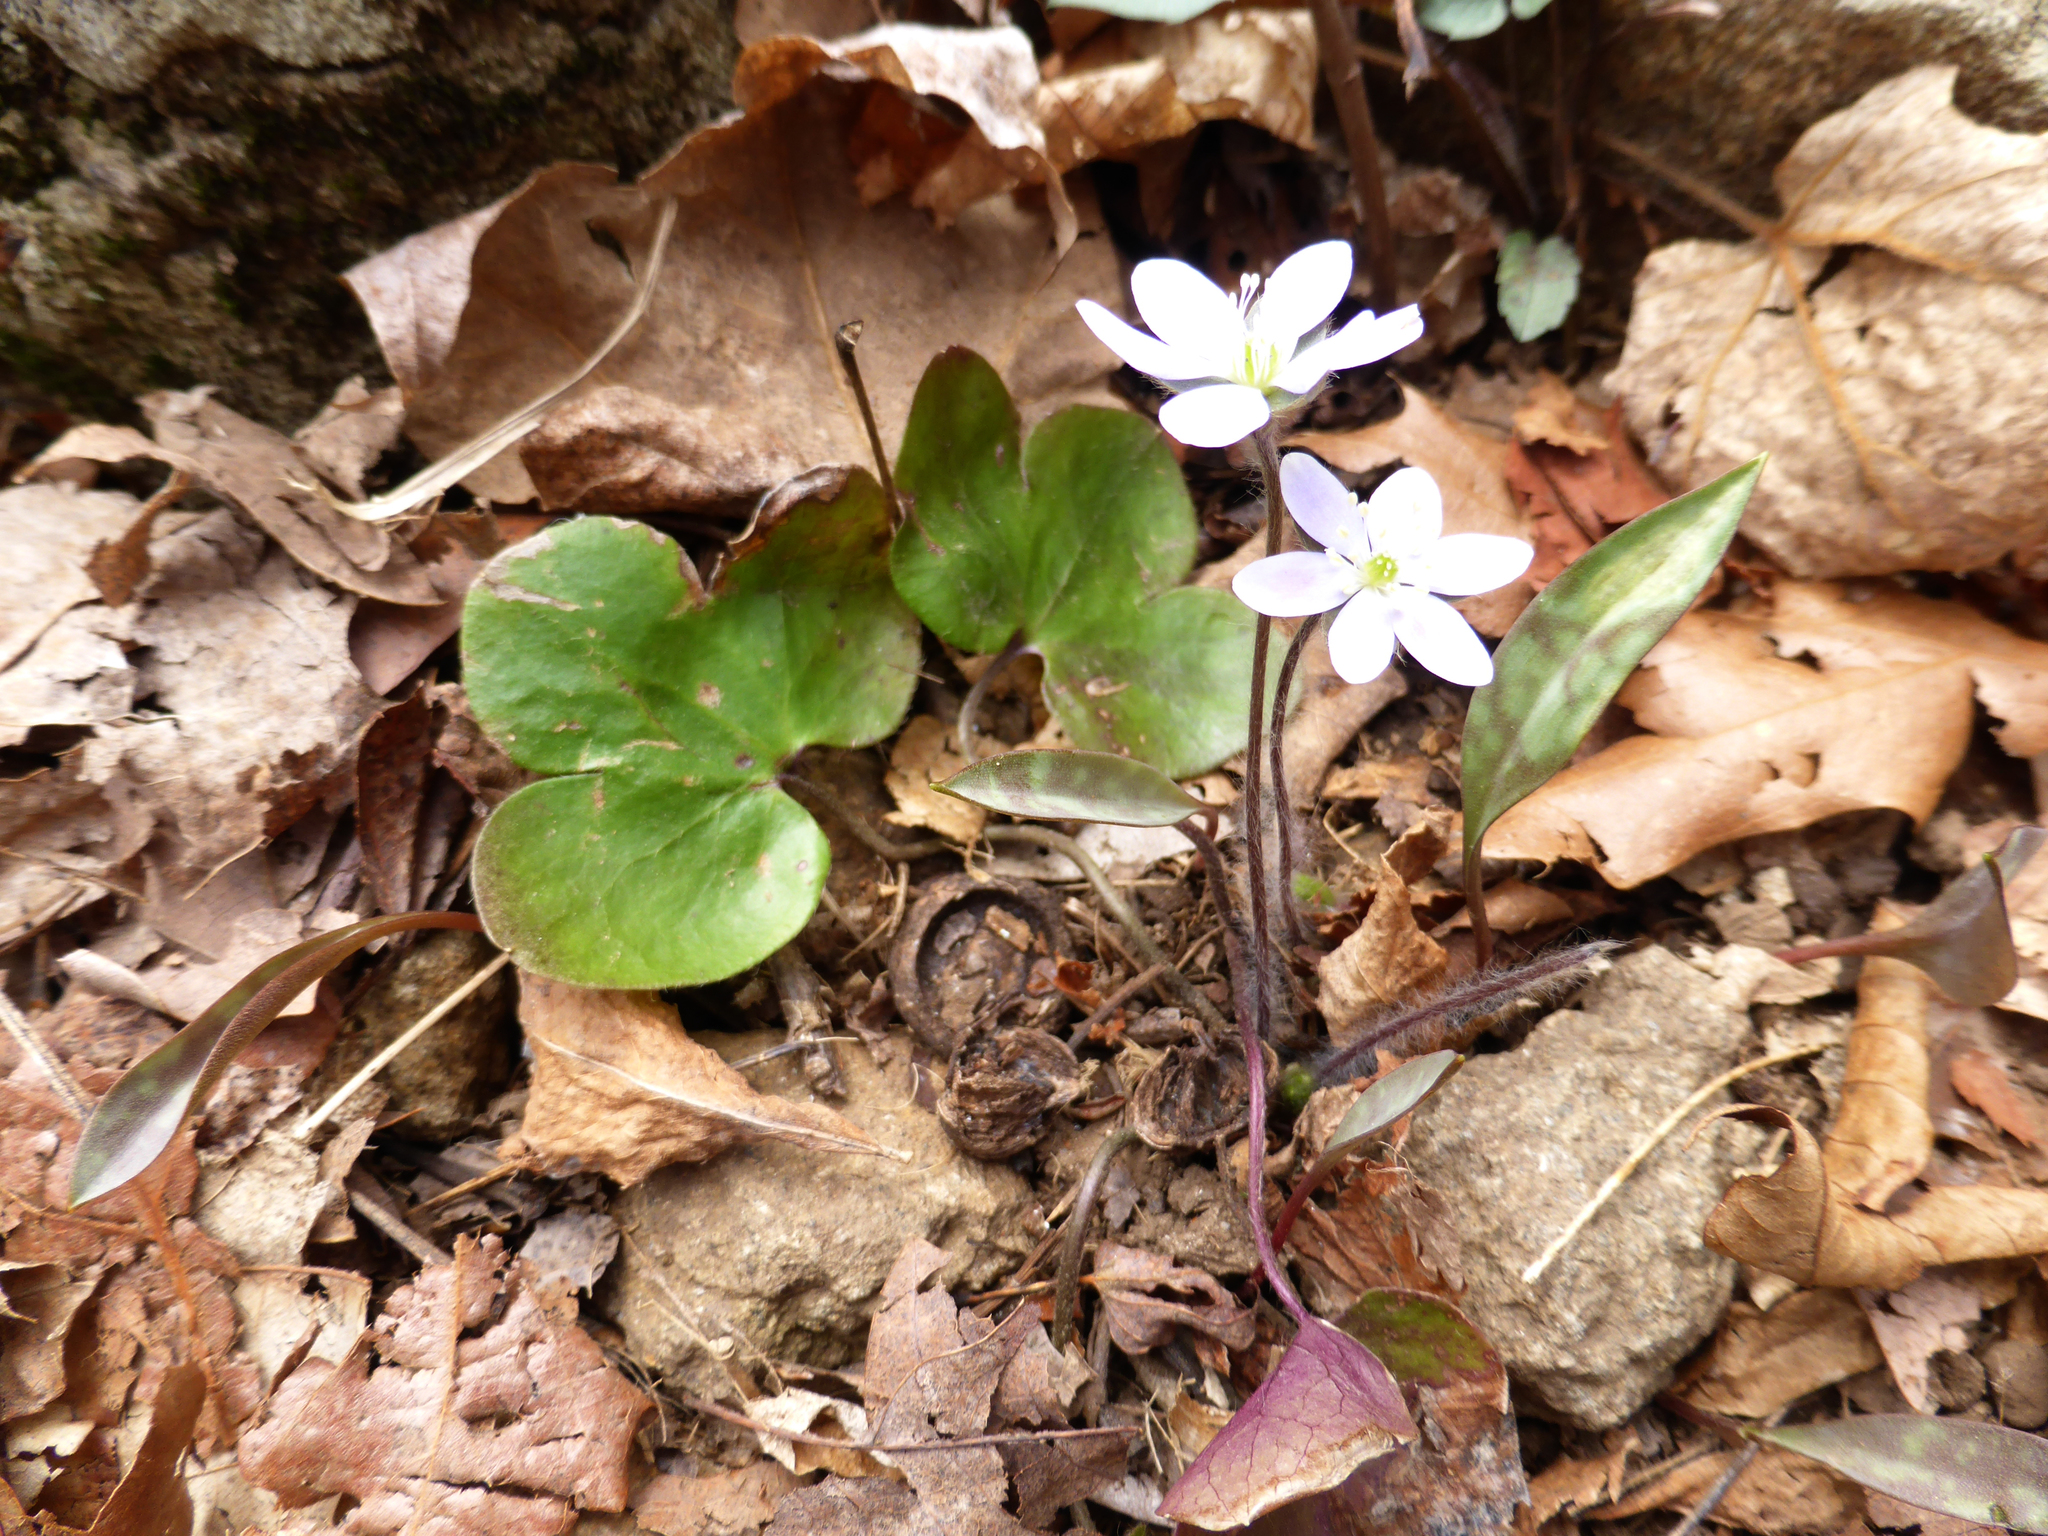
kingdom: Plantae
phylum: Tracheophyta
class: Magnoliopsida
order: Ranunculales
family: Ranunculaceae
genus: Hepatica
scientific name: Hepatica americana
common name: American hepatica
